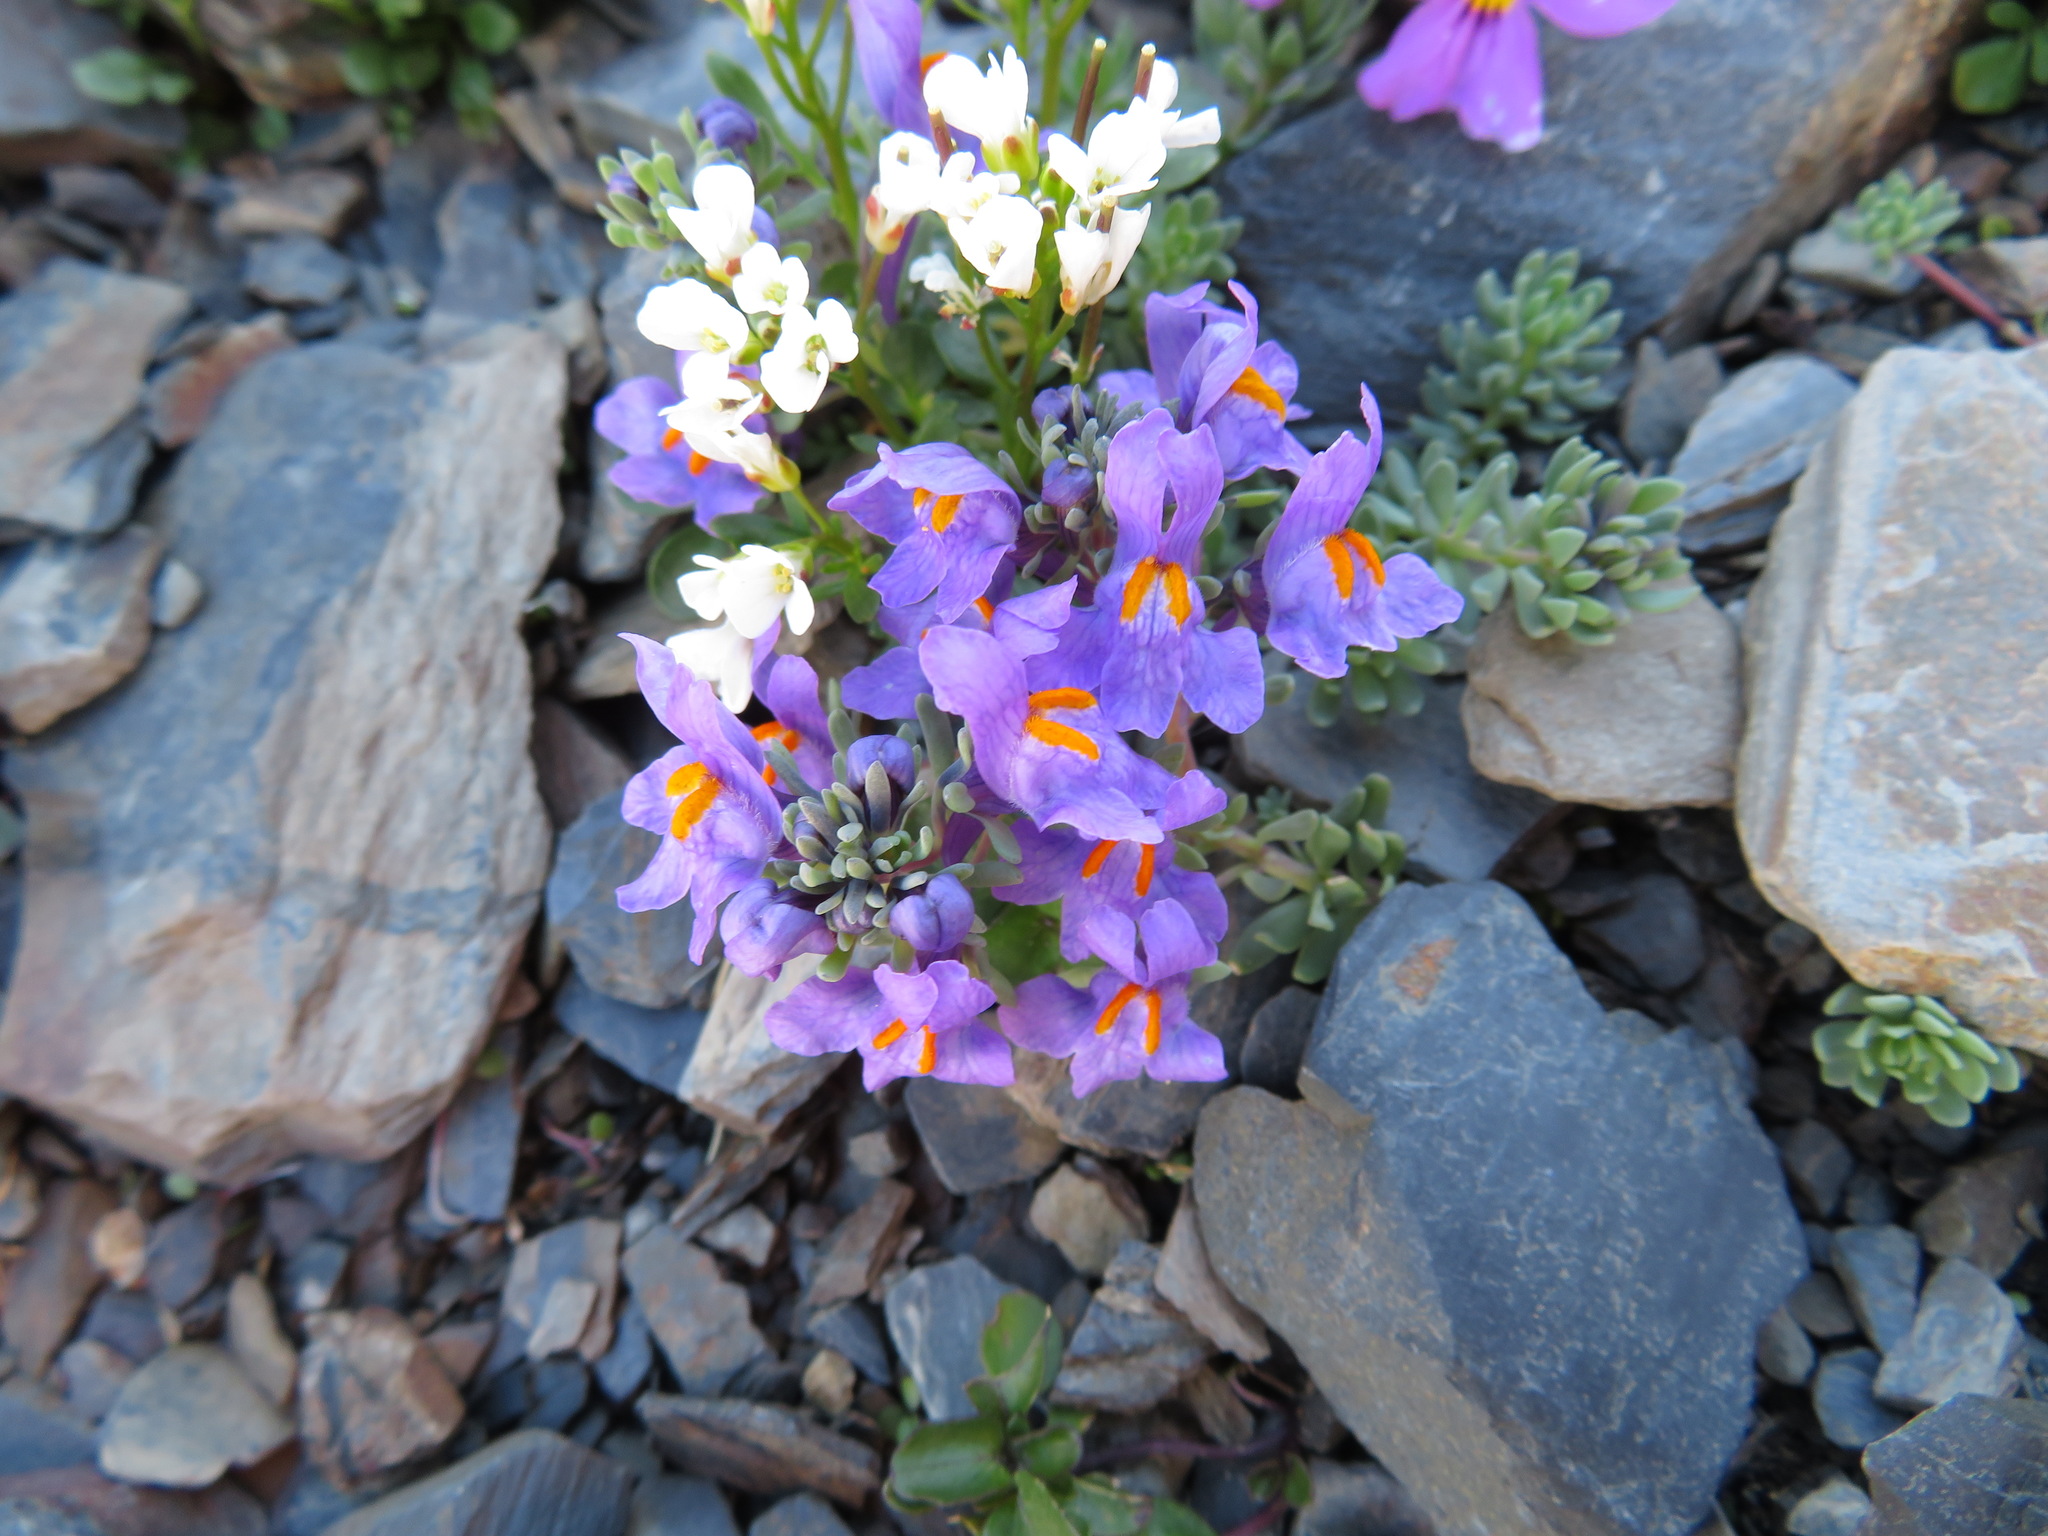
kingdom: Plantae
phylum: Tracheophyta
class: Magnoliopsida
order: Lamiales
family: Plantaginaceae
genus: Linaria
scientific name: Linaria alpina
